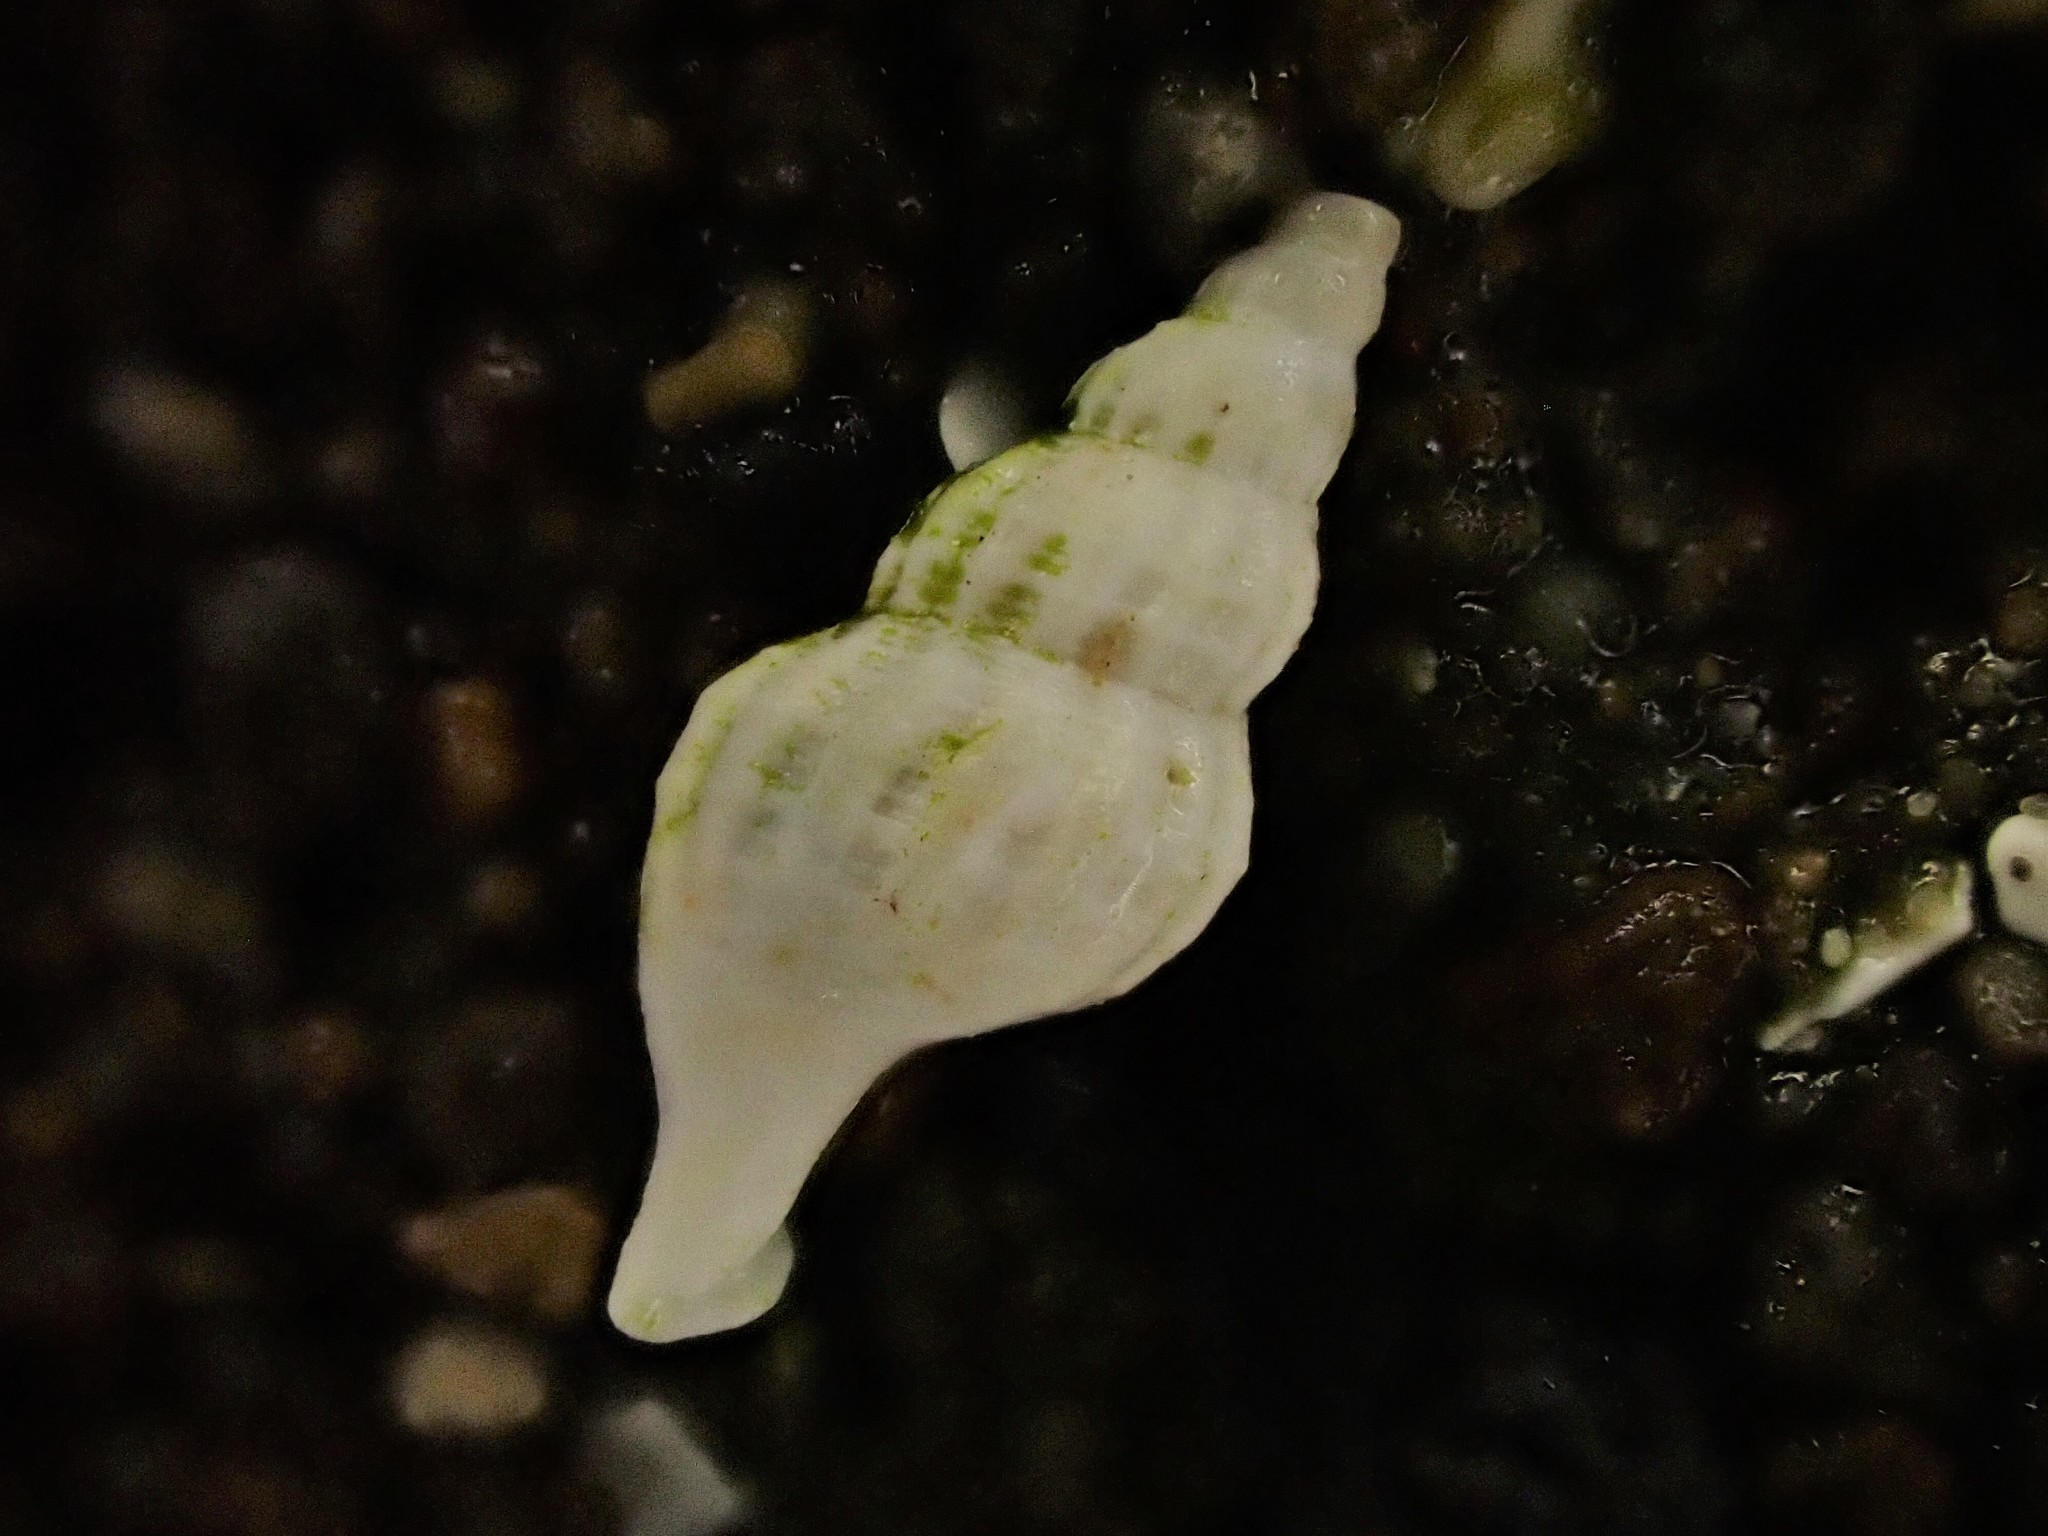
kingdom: Animalia
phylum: Mollusca
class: Gastropoda
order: Neogastropoda
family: Mangeliidae
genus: Liracraea
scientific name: Liracraea odhneri
